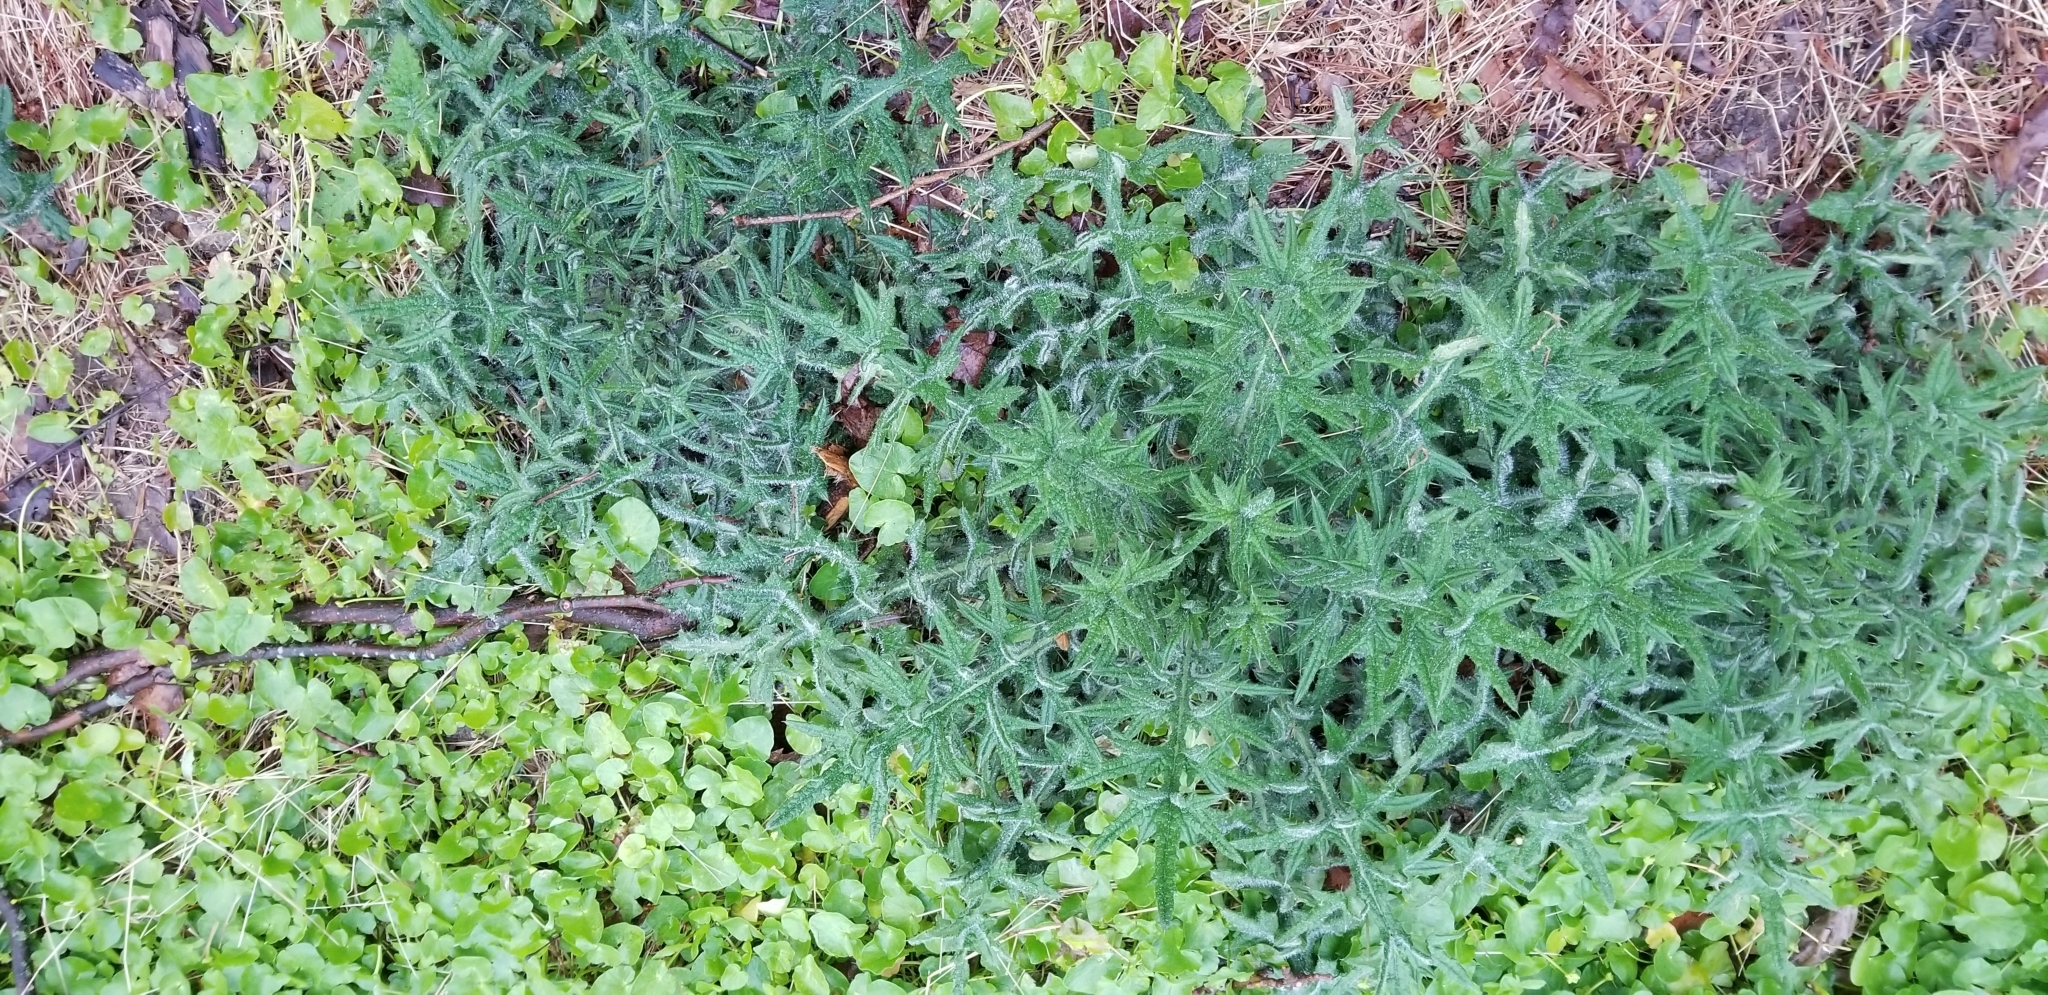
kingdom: Plantae
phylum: Tracheophyta
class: Magnoliopsida
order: Asterales
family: Asteraceae
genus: Cirsium
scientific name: Cirsium vulgare
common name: Bull thistle
